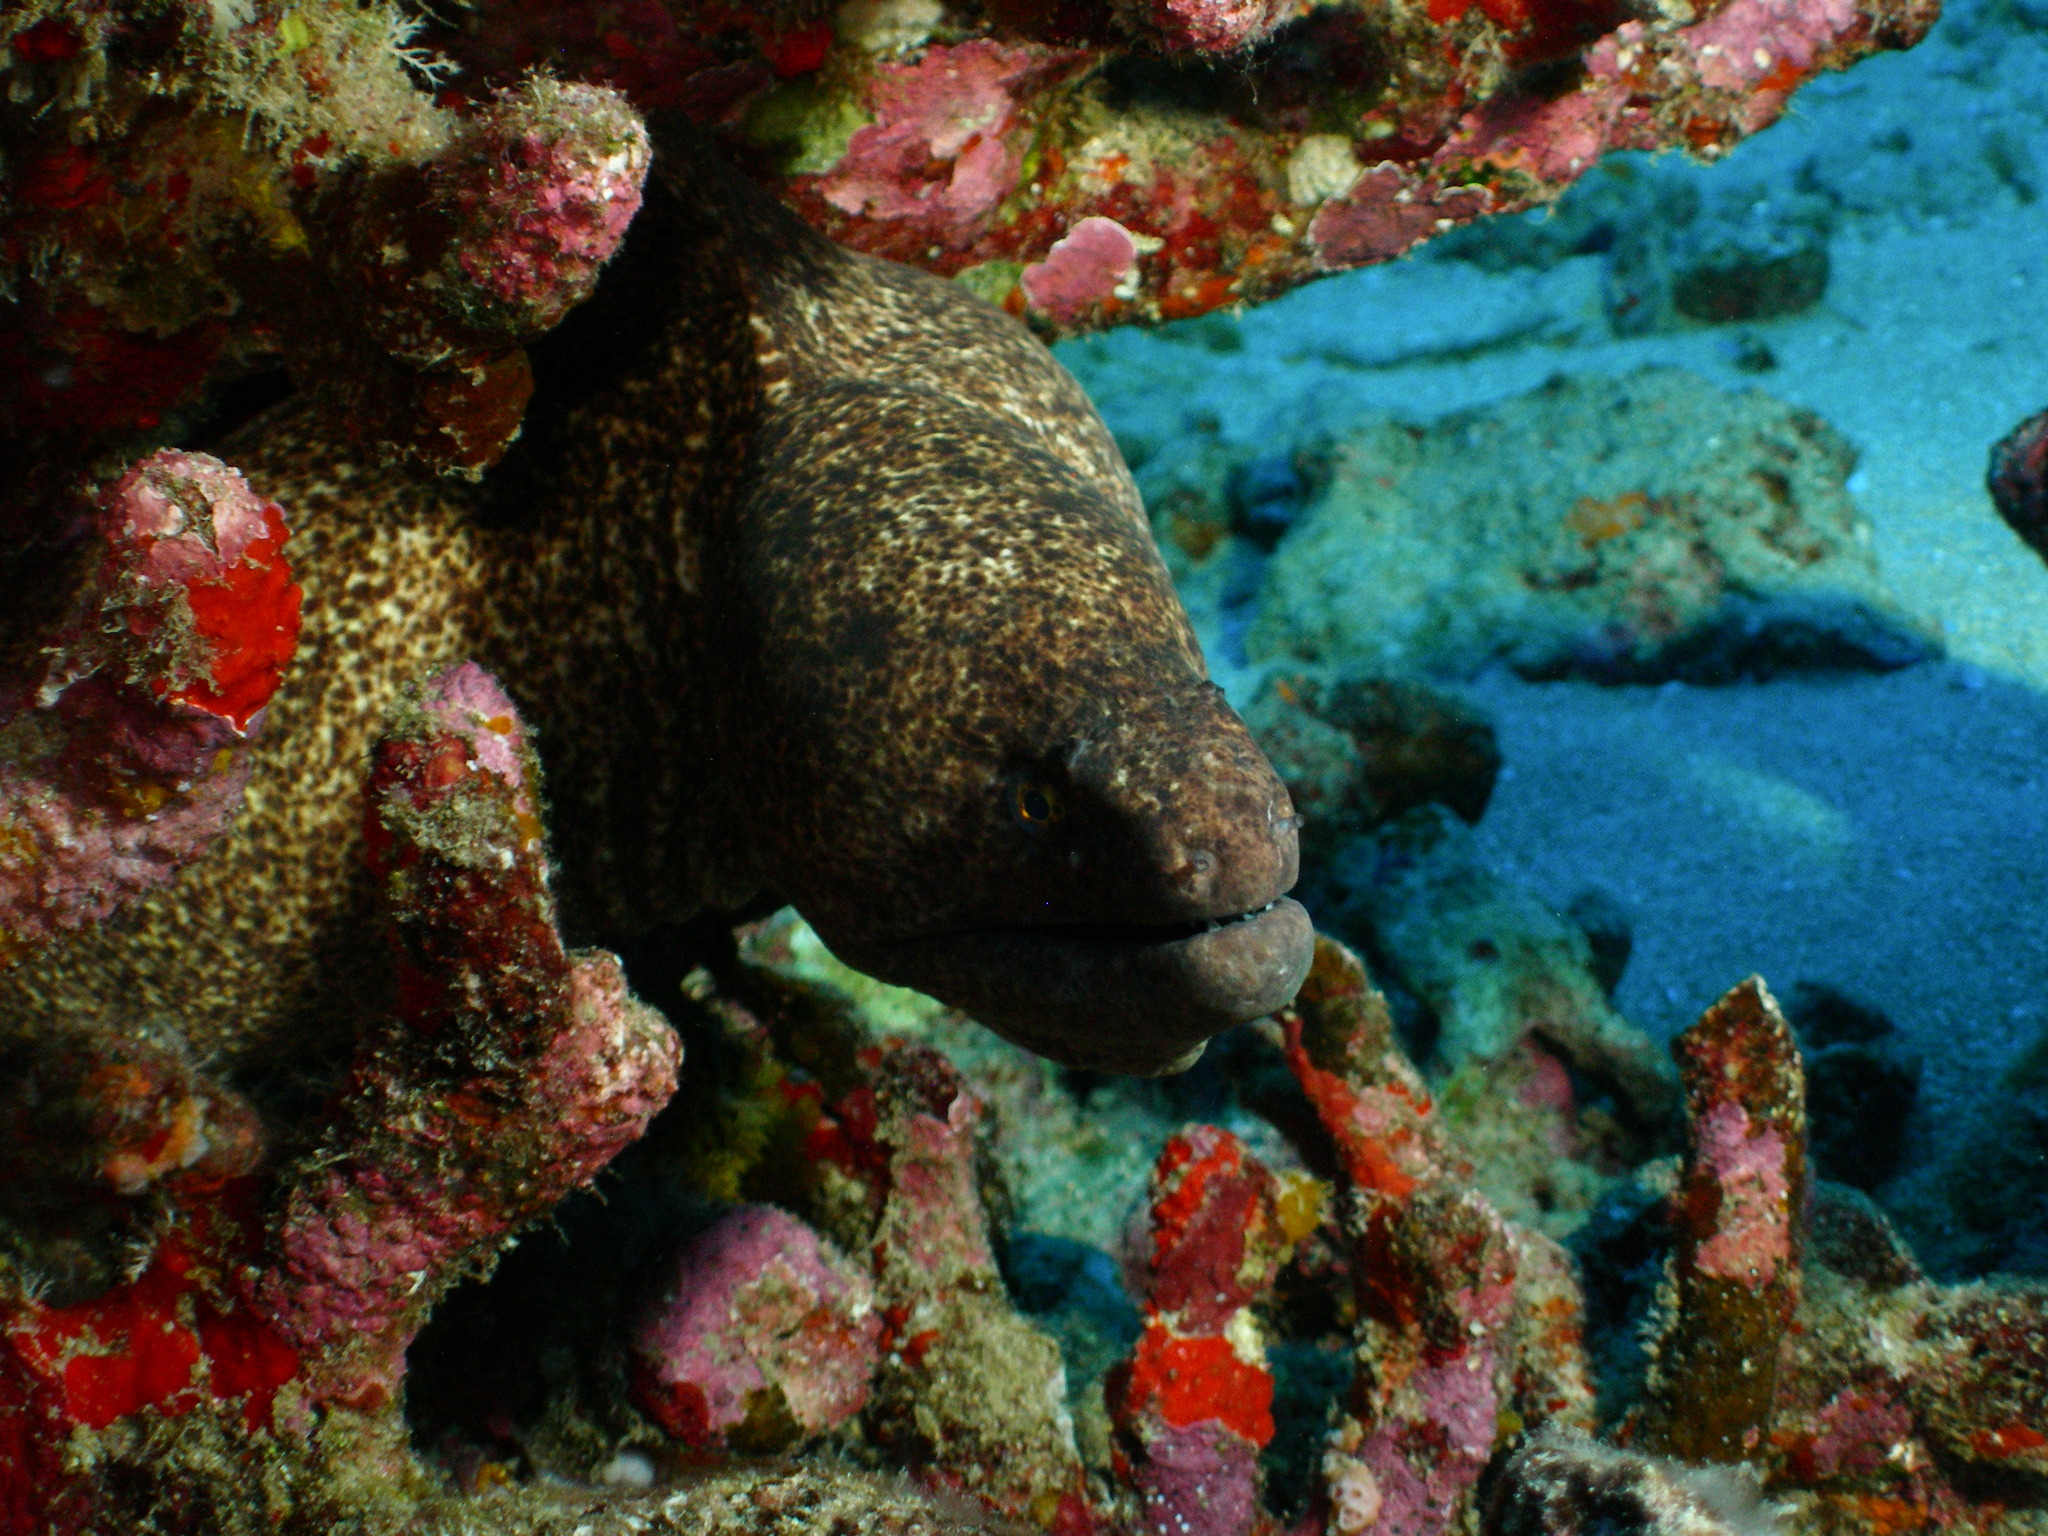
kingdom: Animalia
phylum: Chordata
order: Anguilliformes
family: Muraenidae
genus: Gymnothorax
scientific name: Gymnothorax flavimarginatus
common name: Yellow-edged moray
